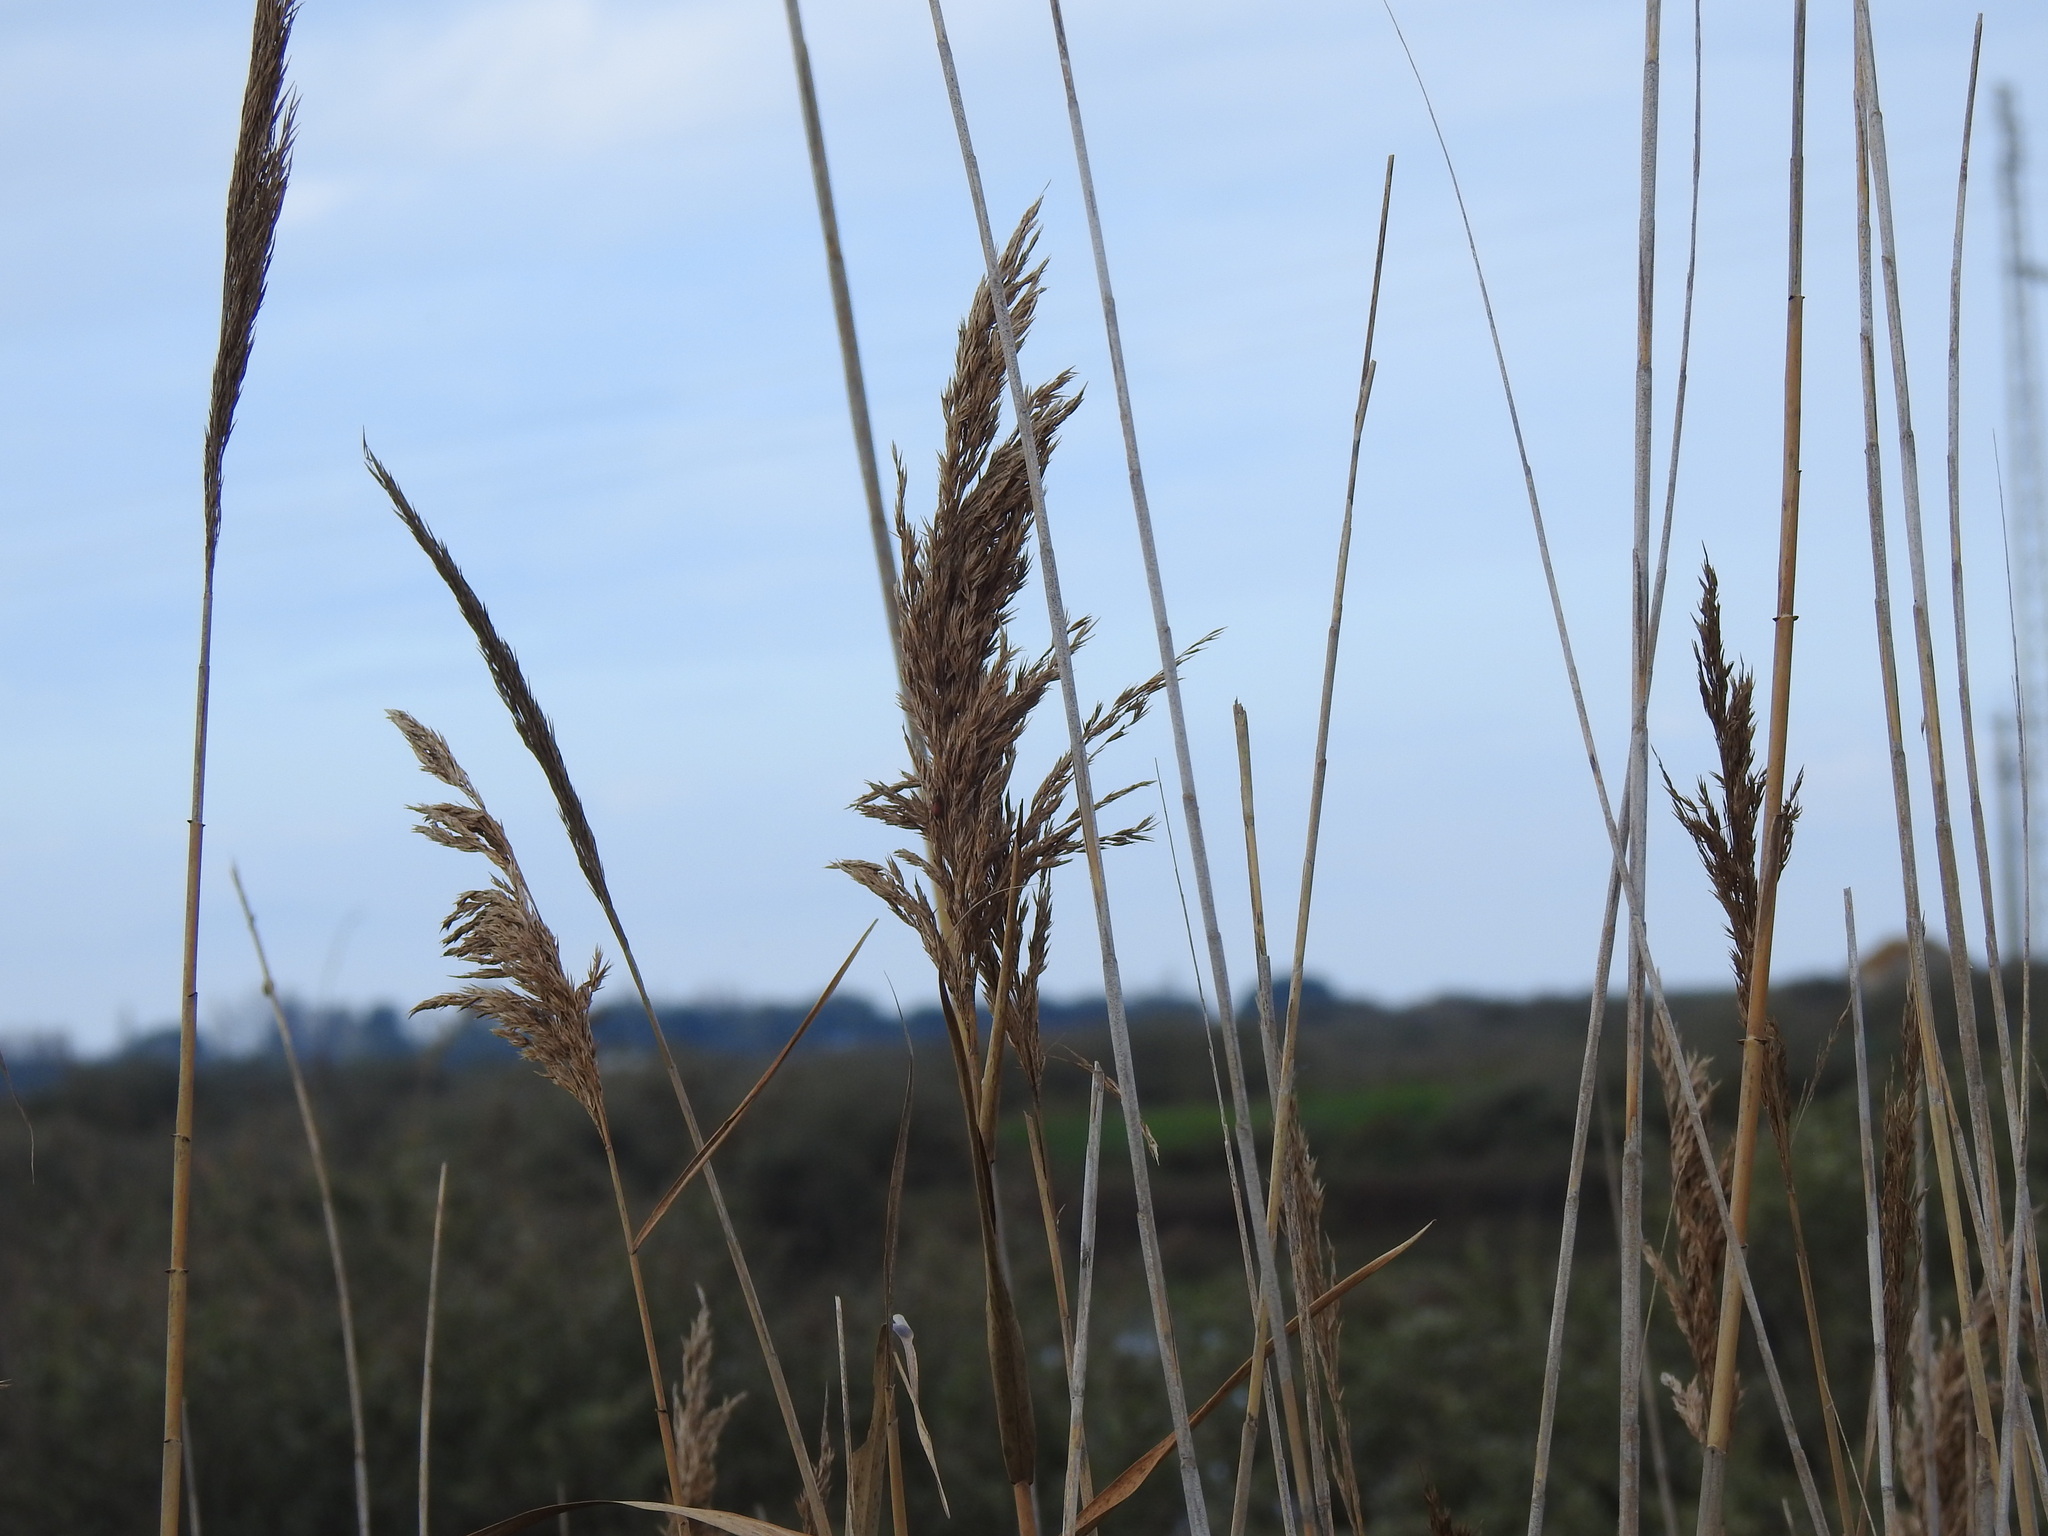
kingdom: Plantae
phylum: Tracheophyta
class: Liliopsida
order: Poales
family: Poaceae
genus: Phragmites
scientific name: Phragmites australis
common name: Common reed
